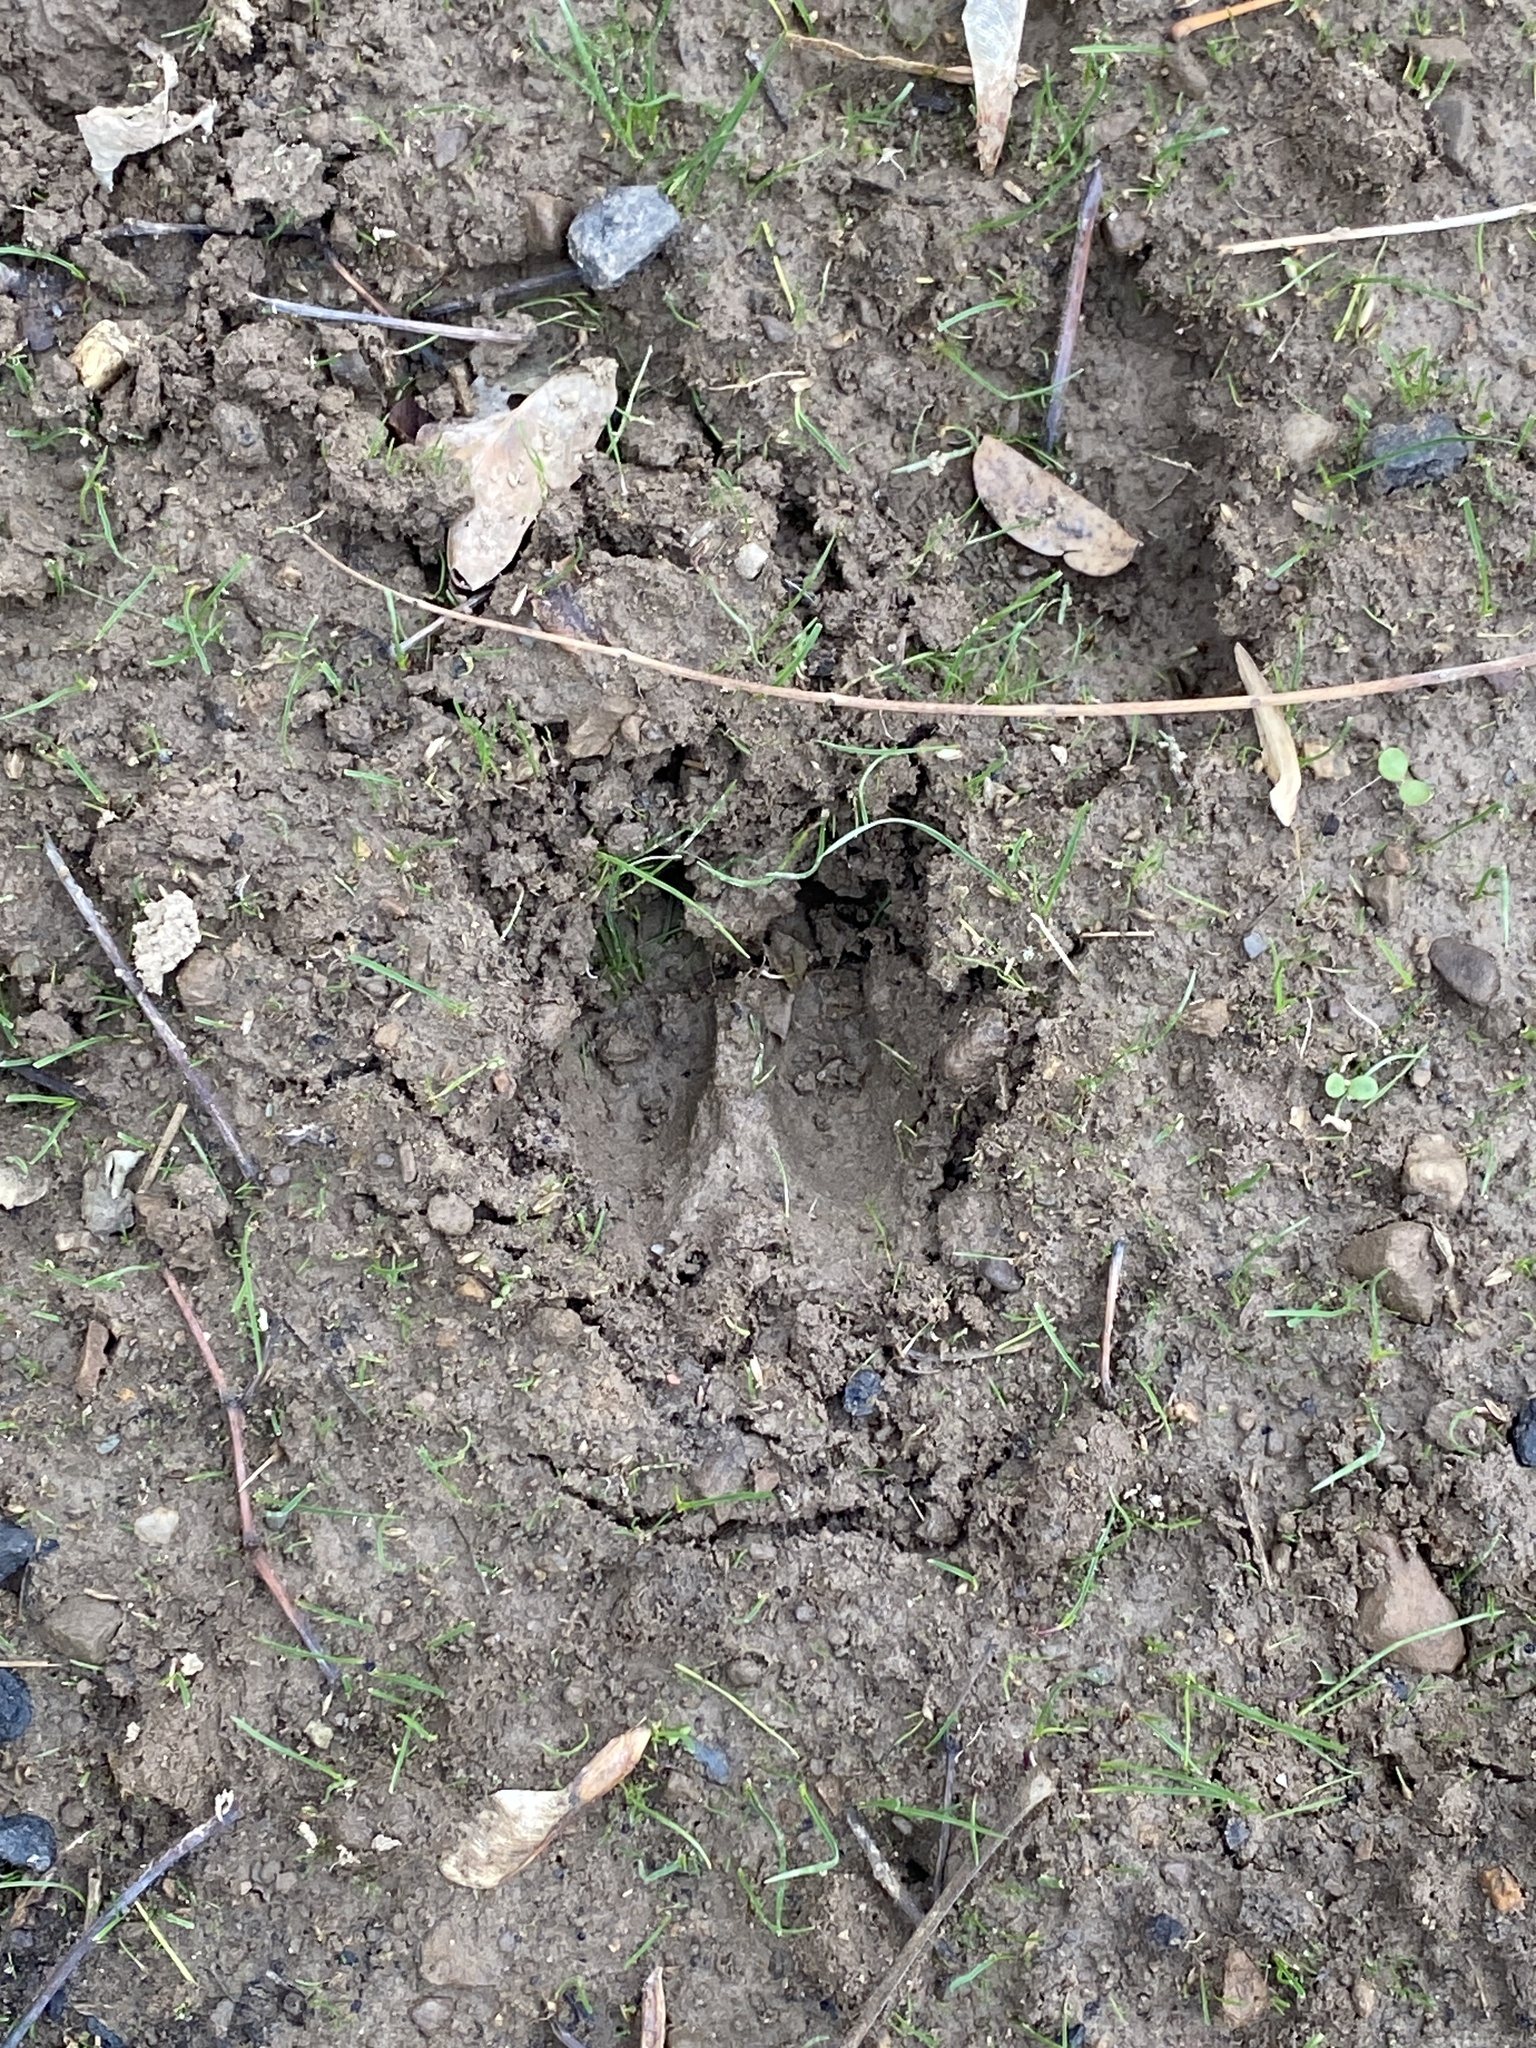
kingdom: Animalia
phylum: Chordata
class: Mammalia
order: Artiodactyla
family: Cervidae
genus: Odocoileus
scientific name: Odocoileus virginianus
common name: White-tailed deer
